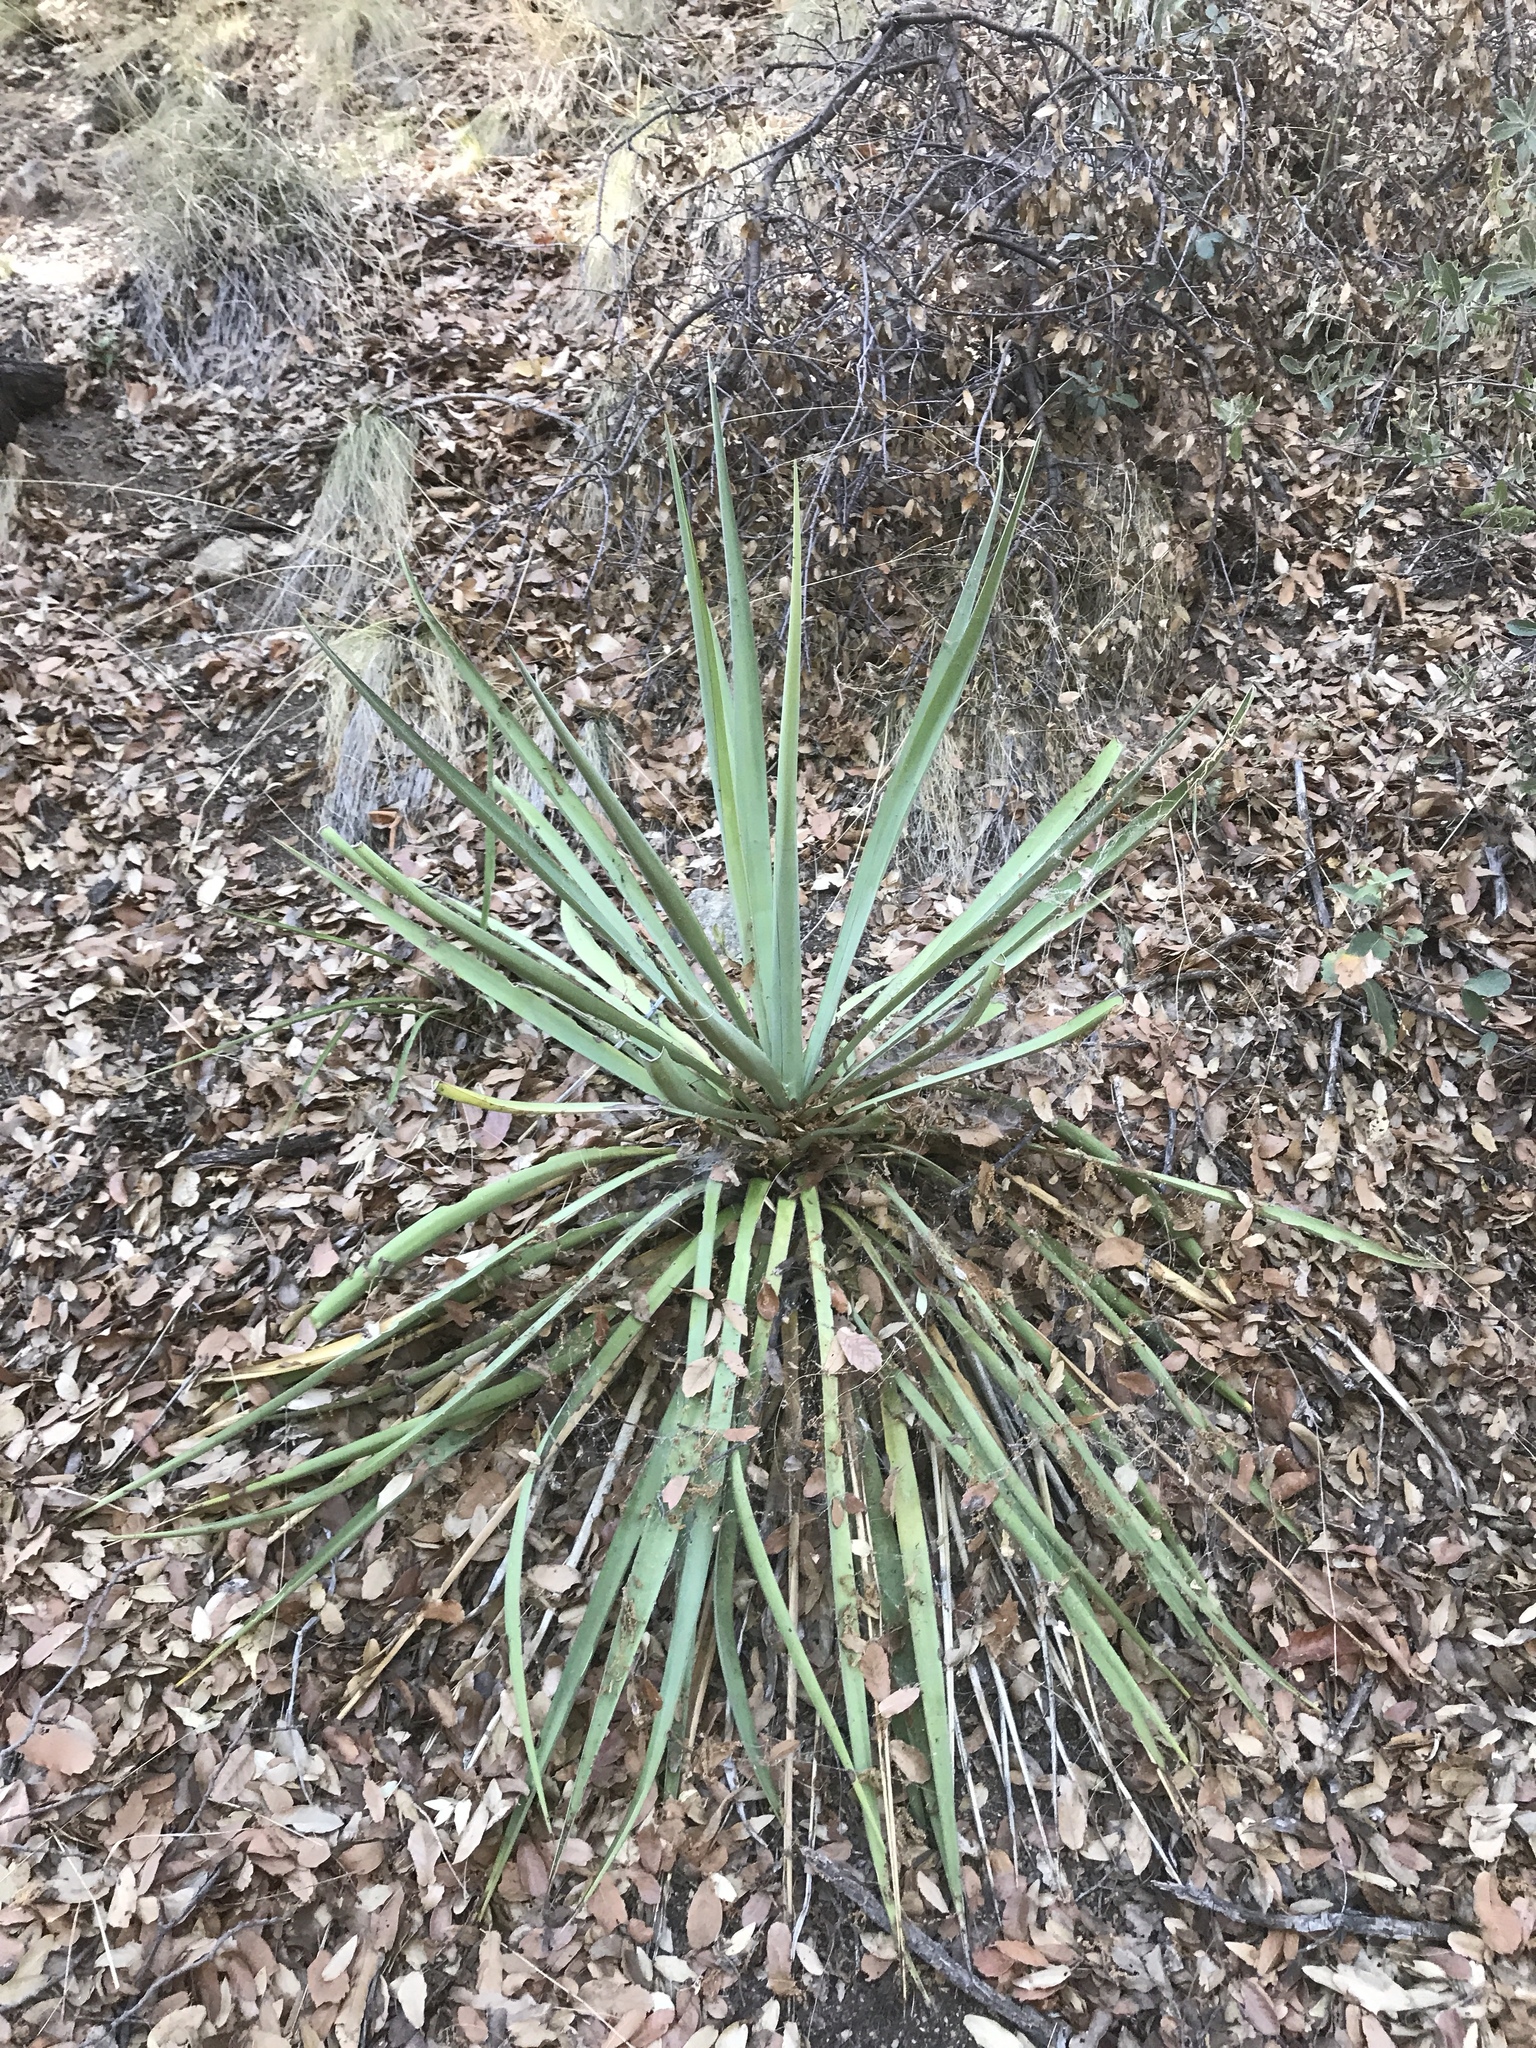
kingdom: Plantae
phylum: Tracheophyta
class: Liliopsida
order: Asparagales
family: Asparagaceae
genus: Yucca
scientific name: Yucca schottii
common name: Hoary yucca
